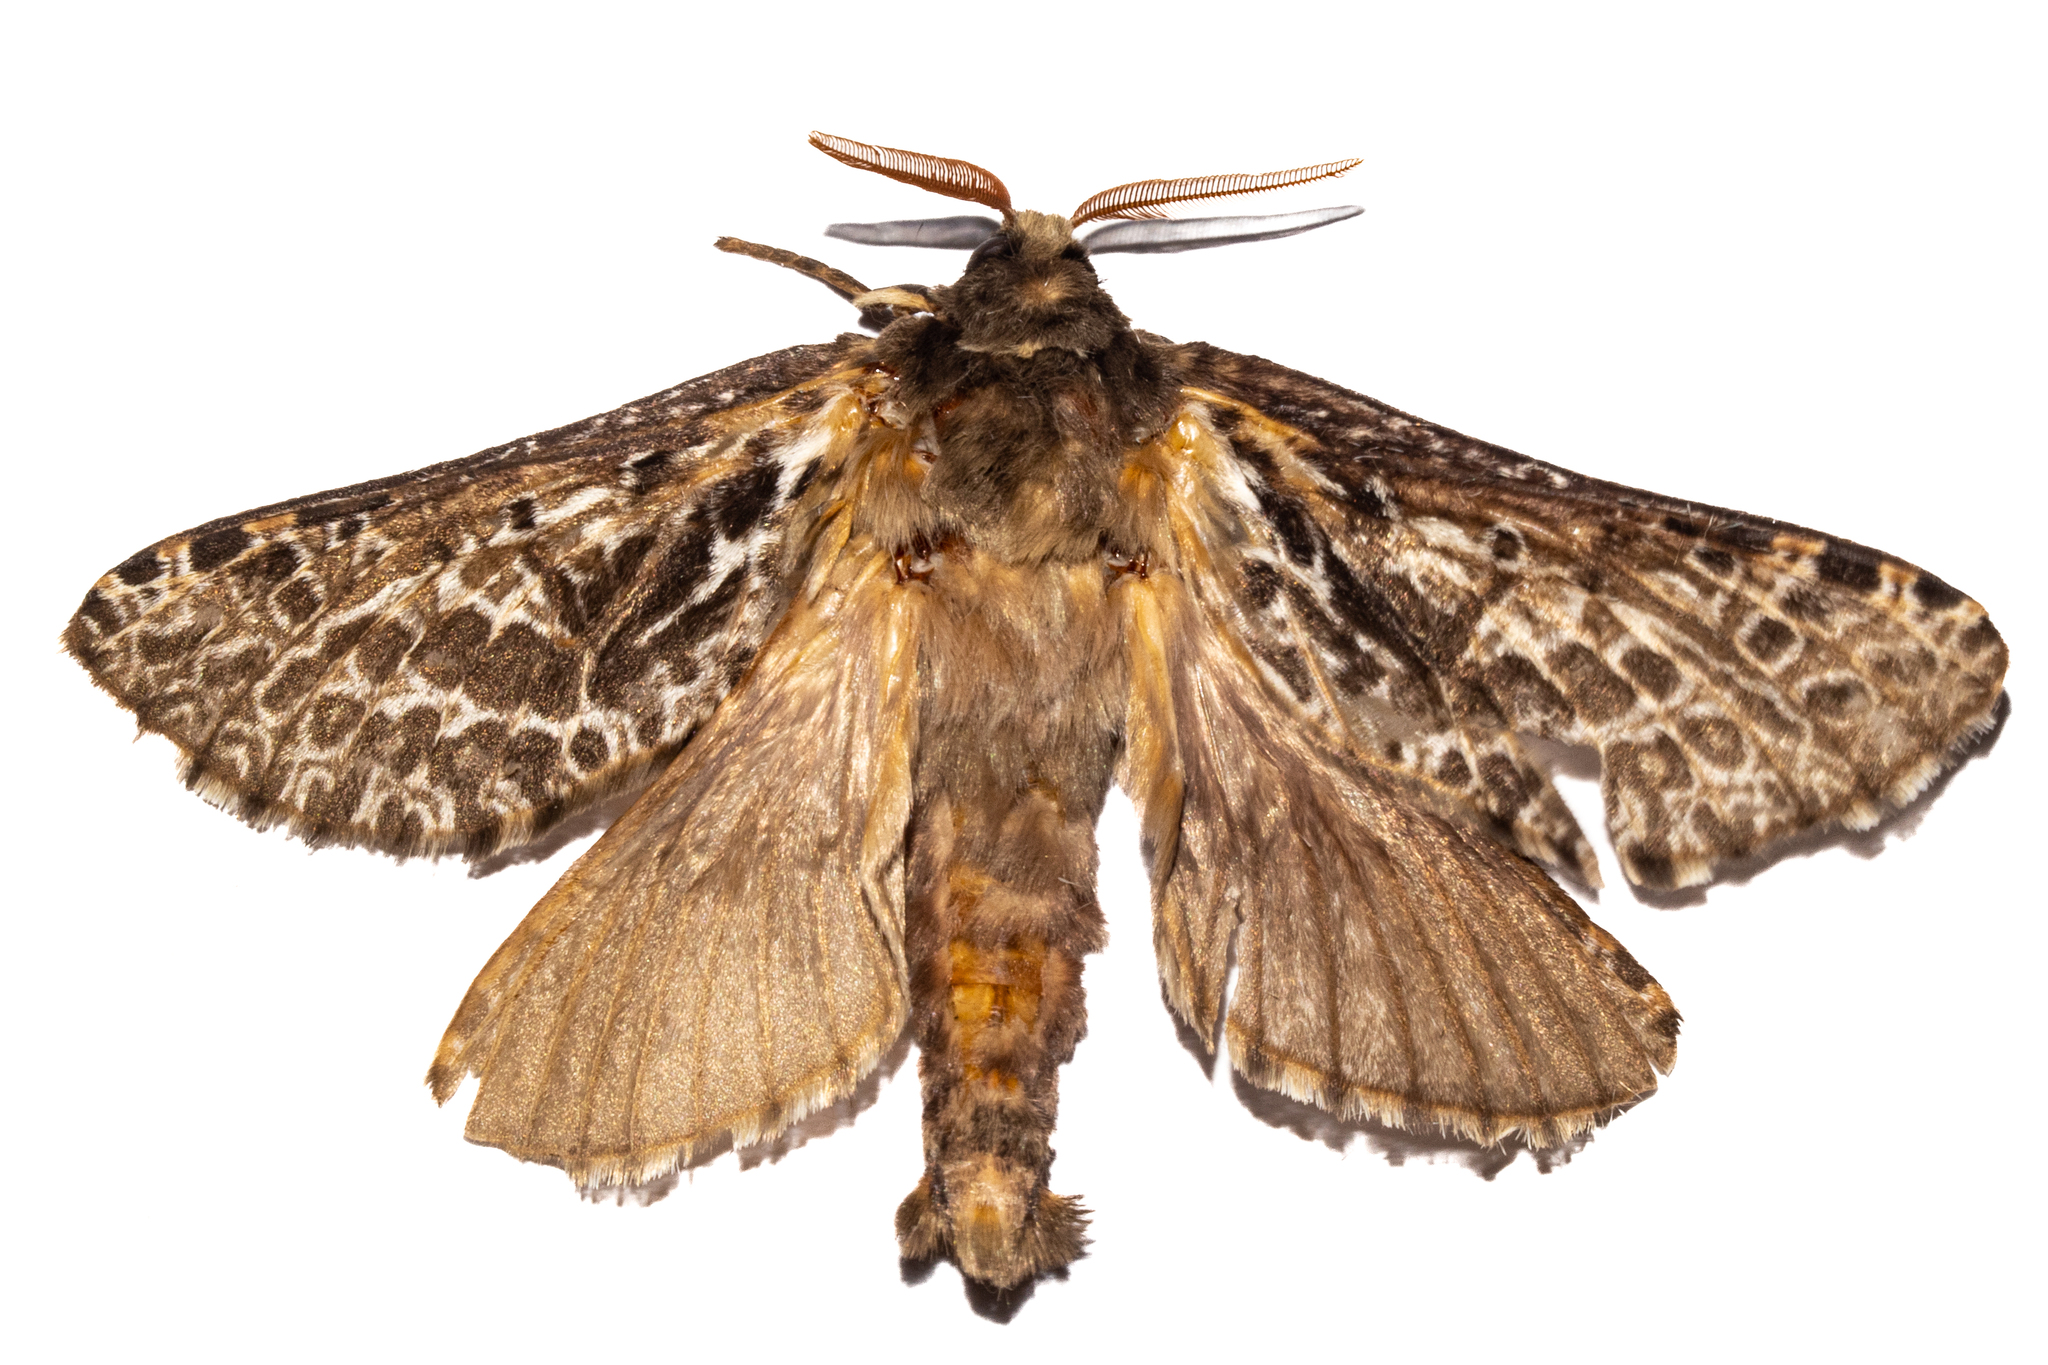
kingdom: Animalia
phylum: Arthropoda
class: Insecta
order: Lepidoptera
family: Hepialidae
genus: Aoraia
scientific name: Aoraia rufivena
